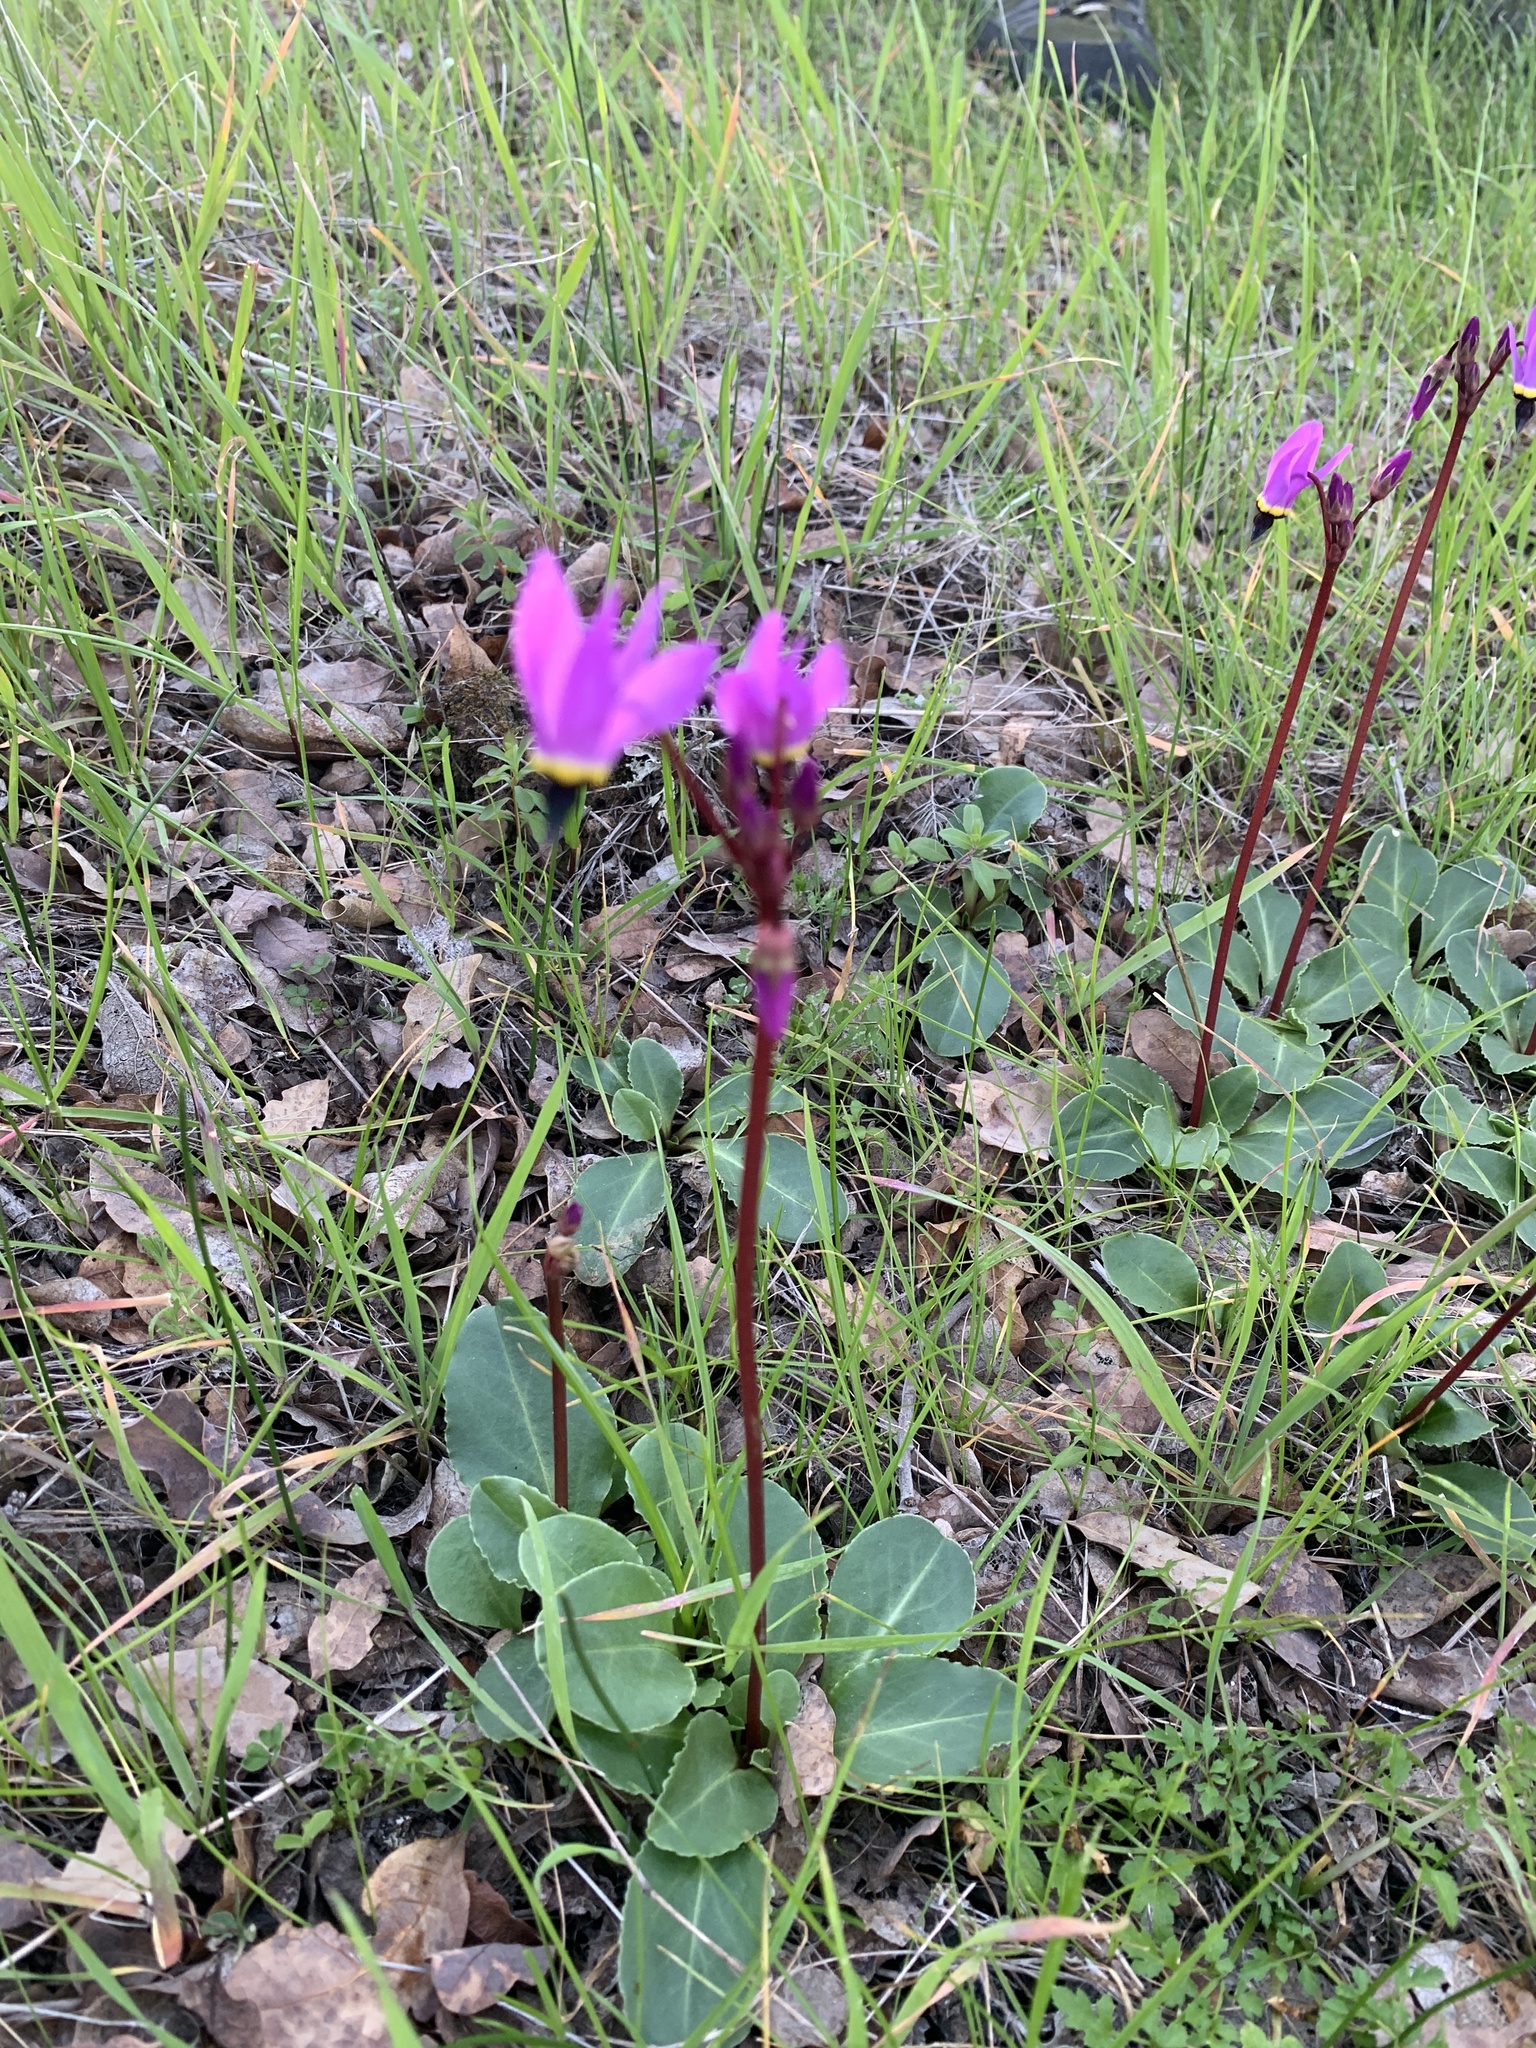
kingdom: Plantae
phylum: Tracheophyta
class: Magnoliopsida
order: Ericales
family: Primulaceae
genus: Dodecatheon
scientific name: Dodecatheon hendersonii
